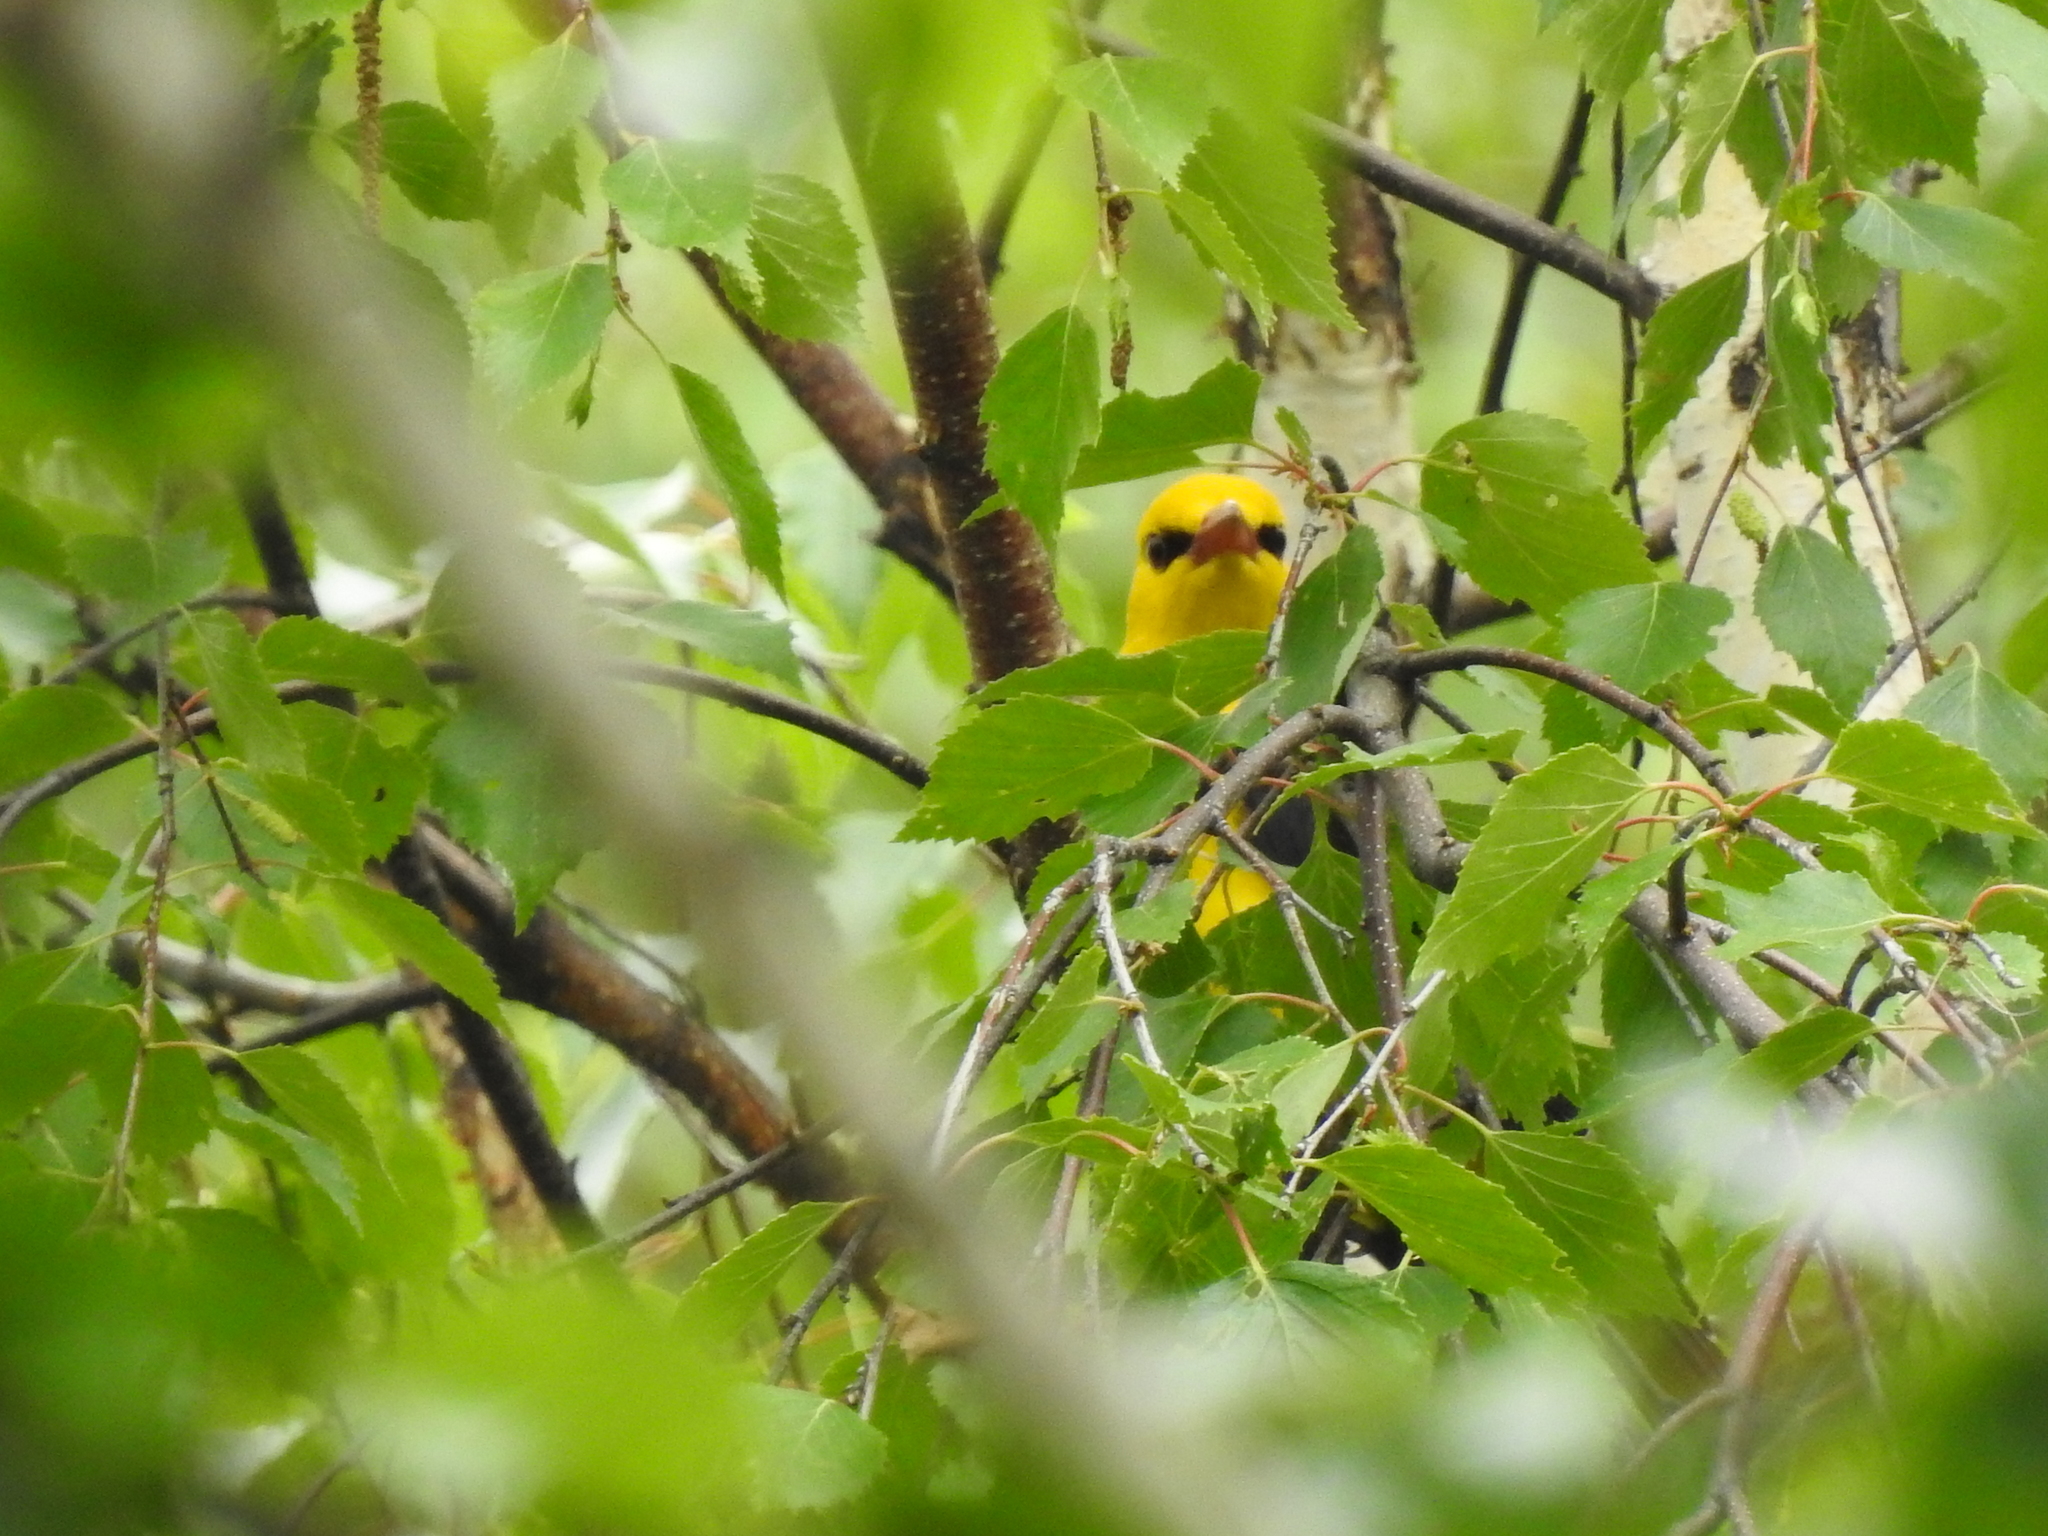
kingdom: Animalia
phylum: Chordata
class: Aves
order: Passeriformes
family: Oriolidae
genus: Oriolus
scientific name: Oriolus oriolus
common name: Eurasian golden oriole
